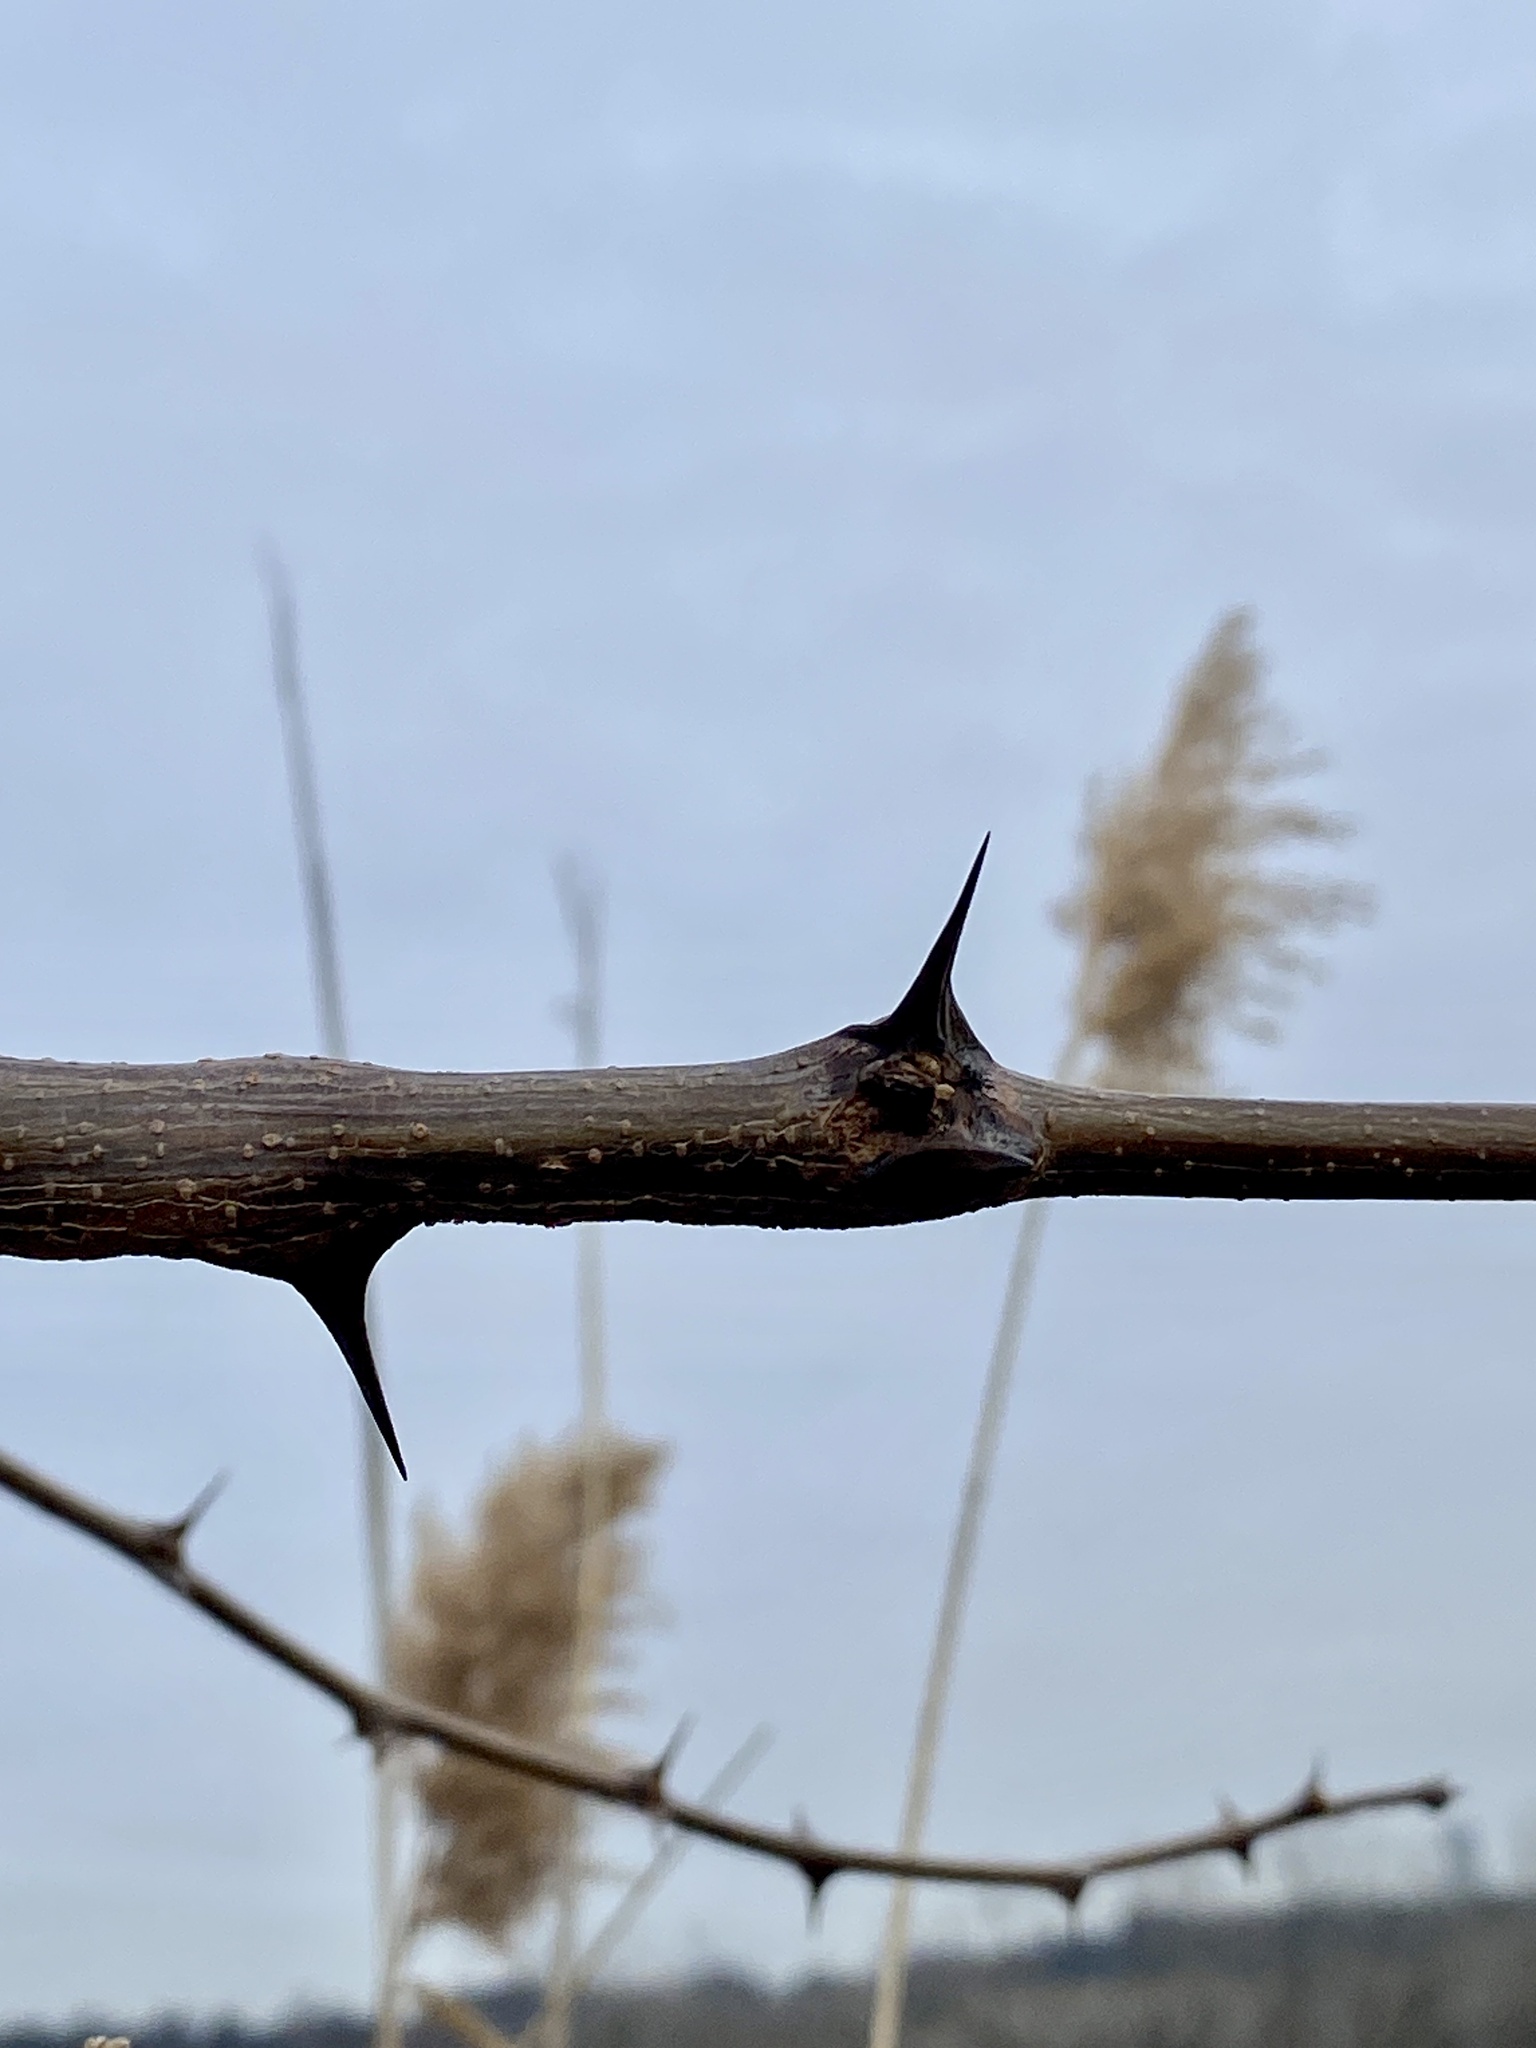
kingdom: Animalia
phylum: Arthropoda
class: Insecta
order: Lepidoptera
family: Tortricidae
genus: Ecdytolopha
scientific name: Ecdytolopha insiticiana
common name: Locust twig borer moth
